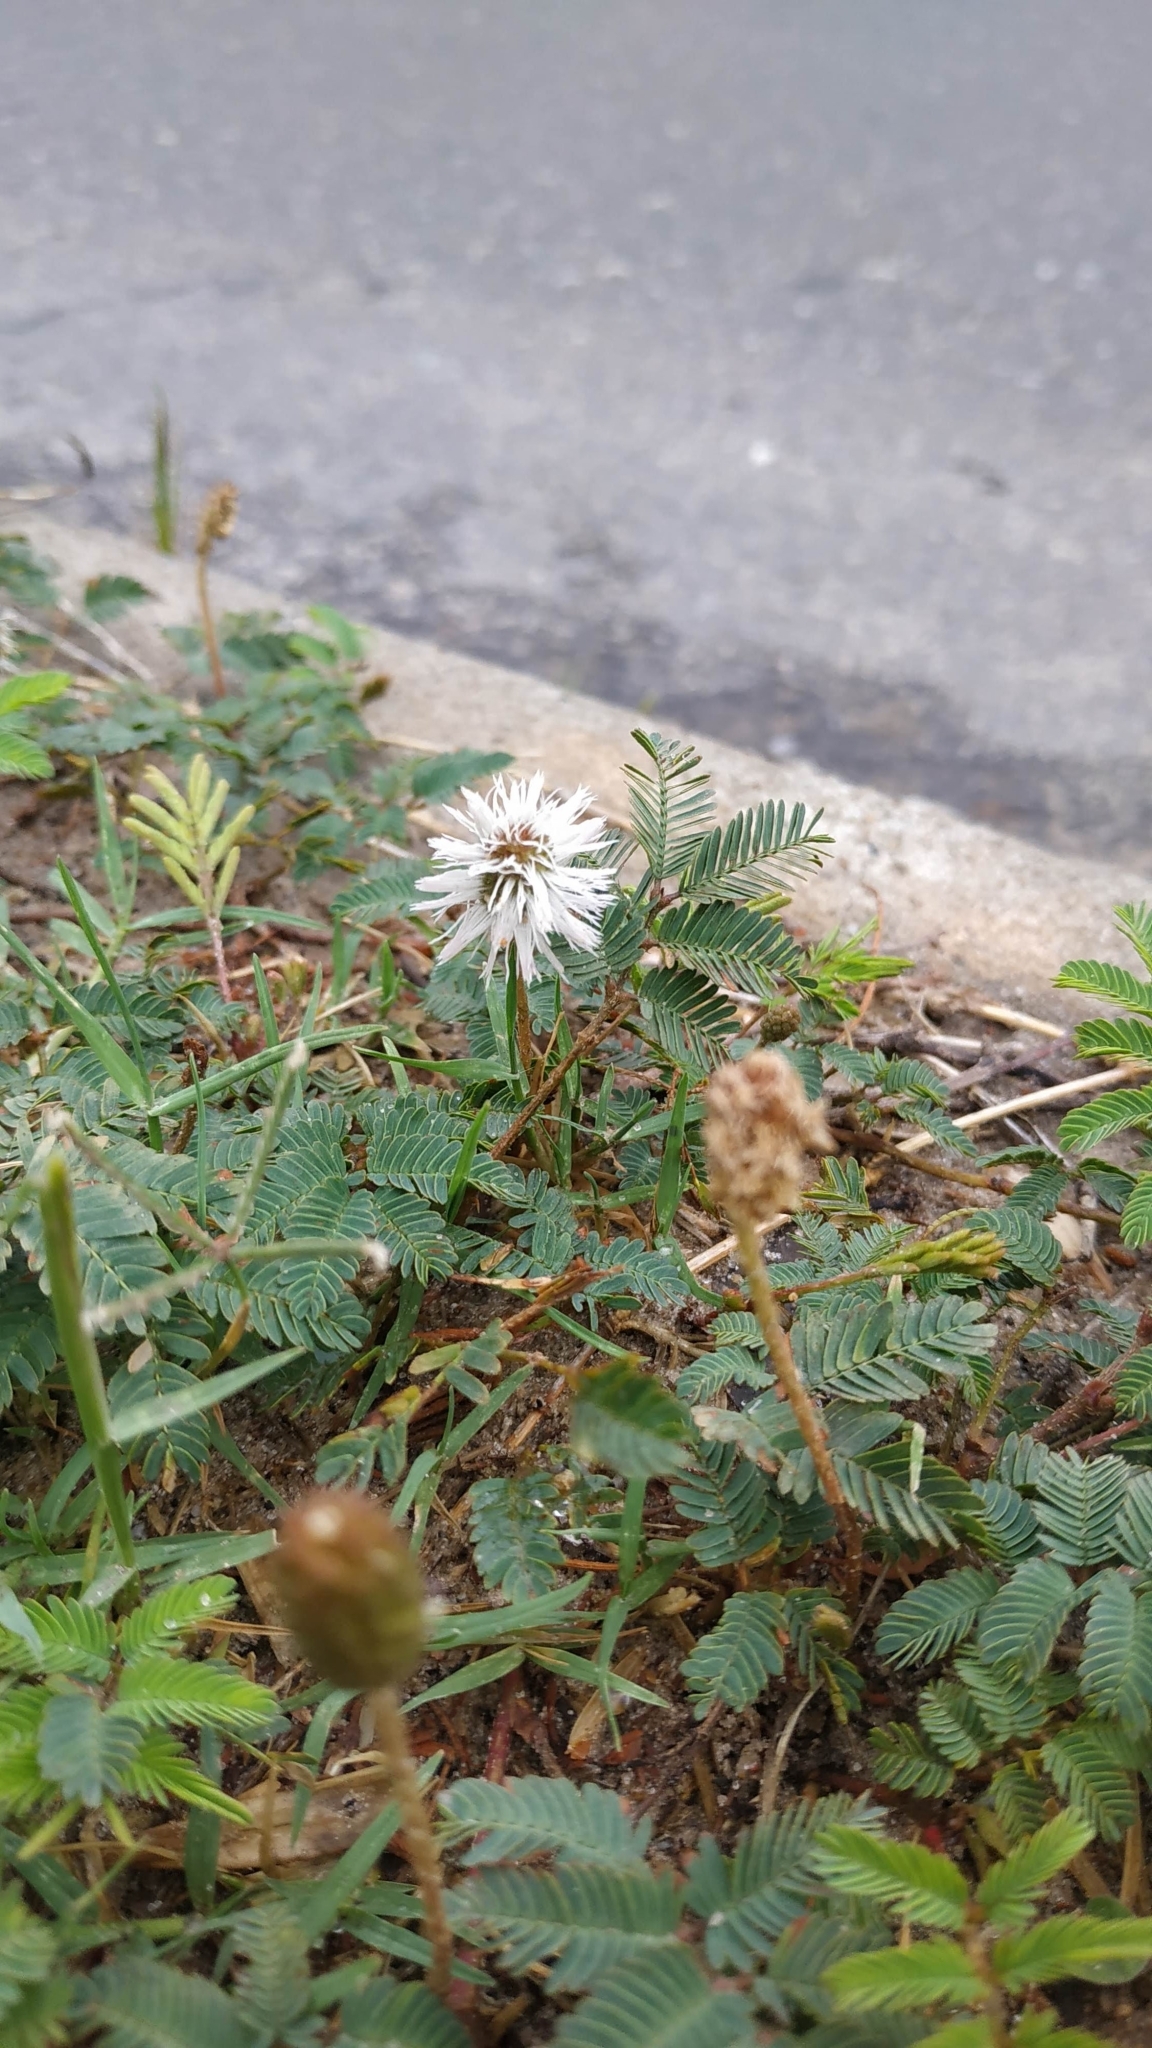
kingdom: Plantae
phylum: Tracheophyta
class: Magnoliopsida
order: Fabales
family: Fabaceae
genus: Mimosa
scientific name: Mimosa strigillosa
